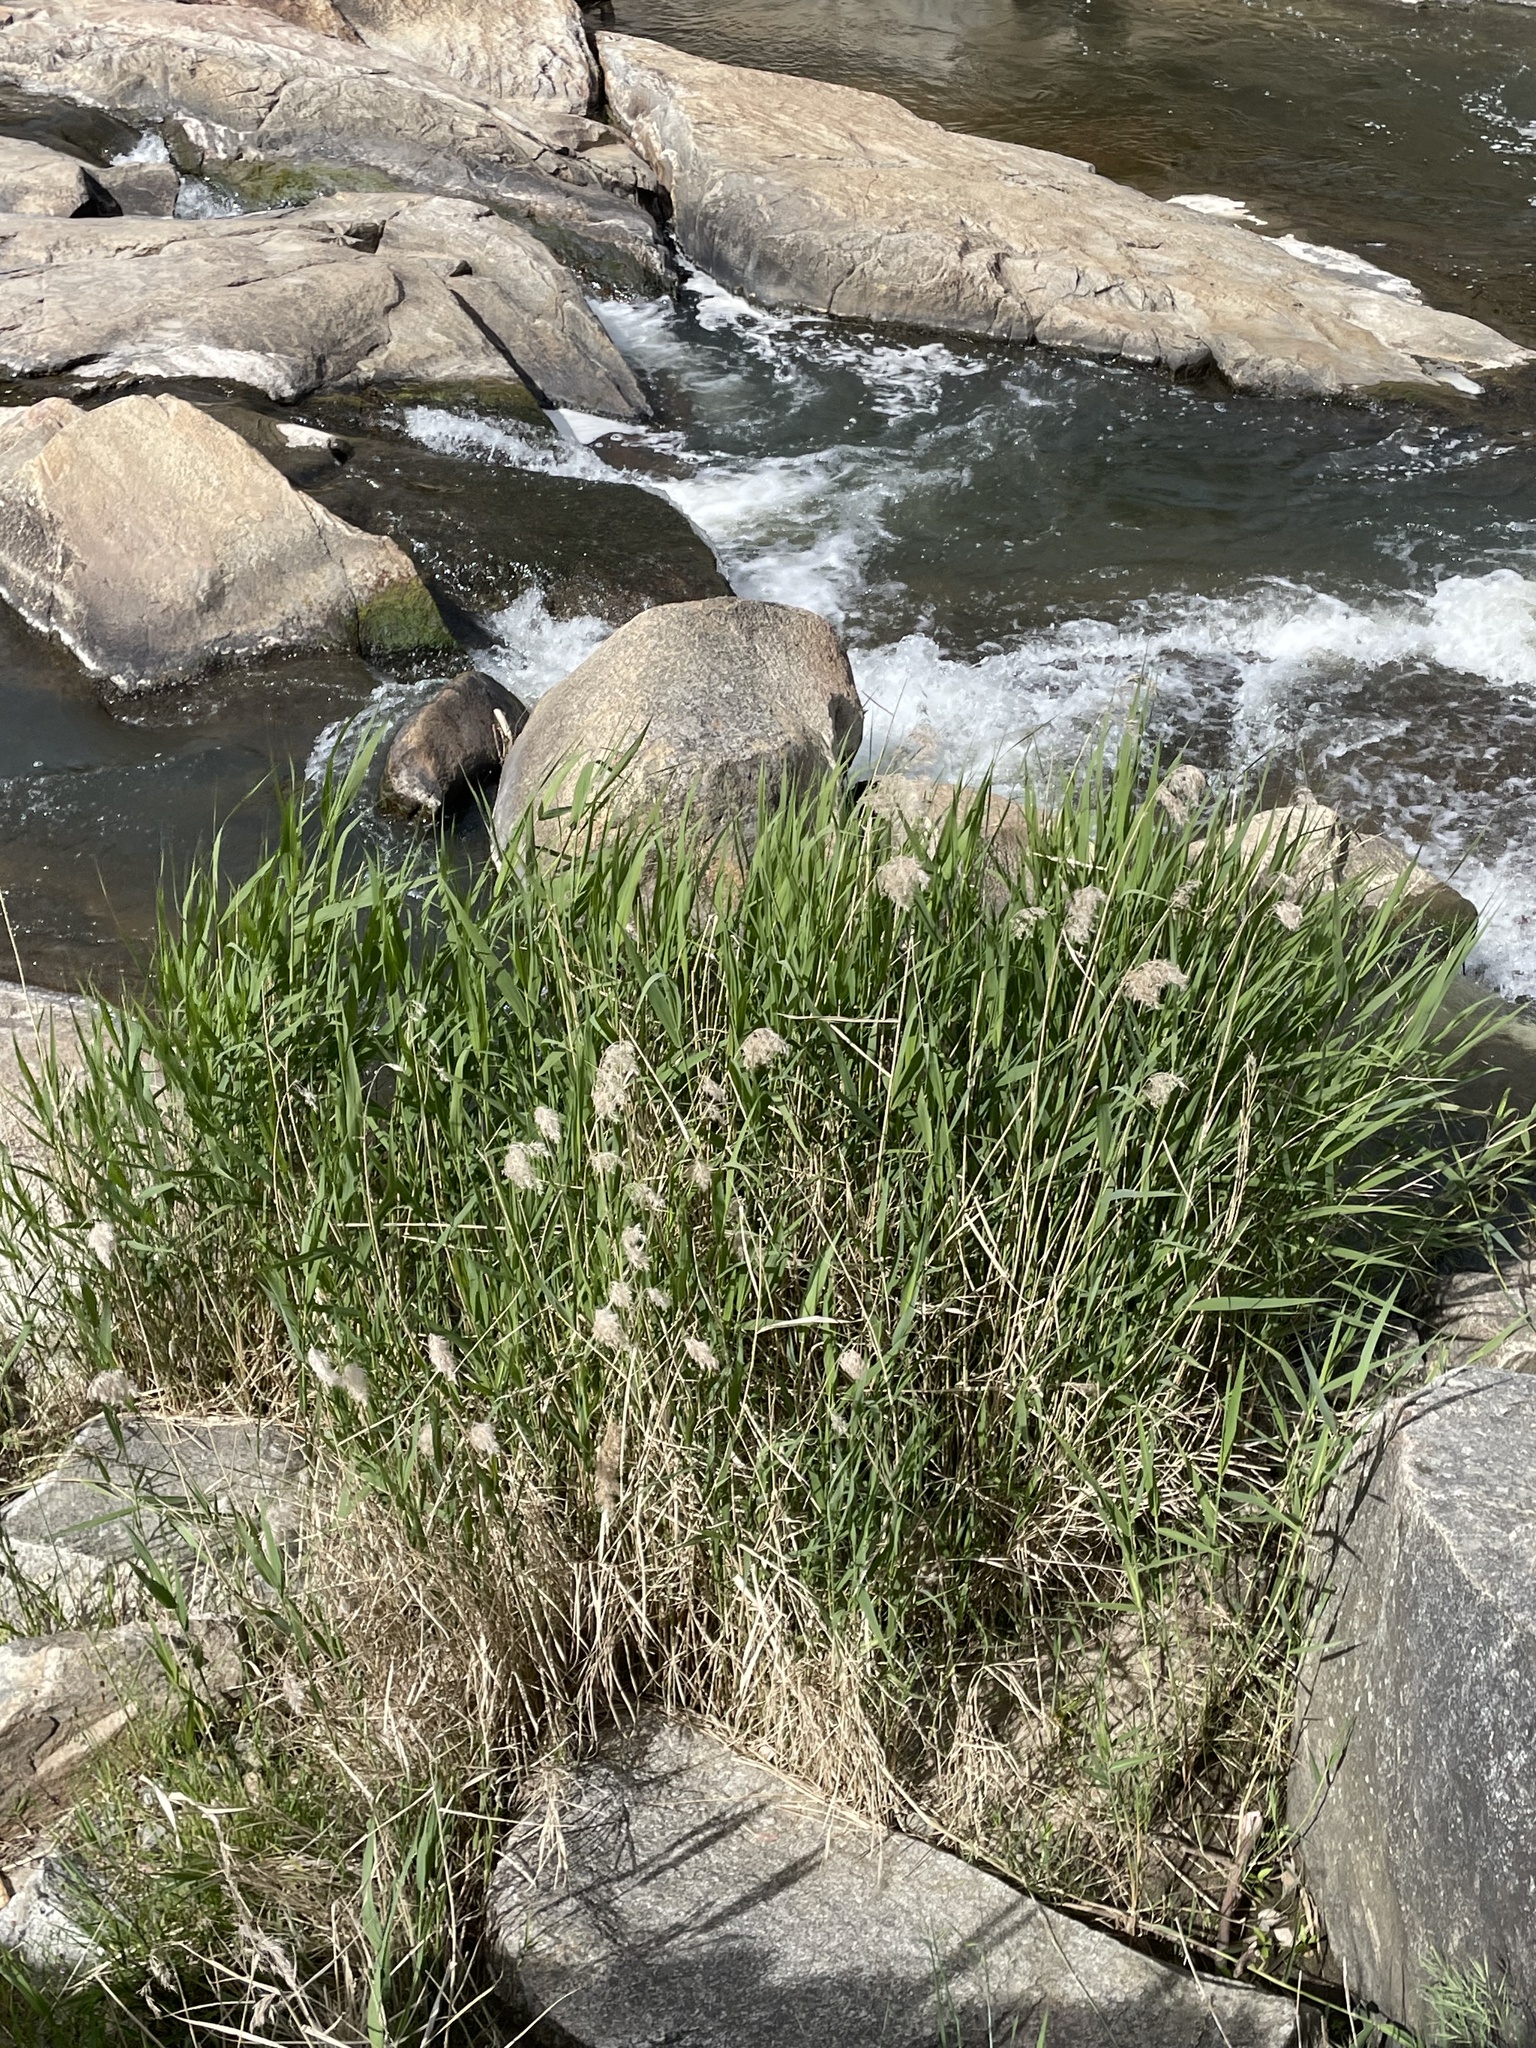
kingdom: Plantae
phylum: Tracheophyta
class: Liliopsida
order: Poales
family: Poaceae
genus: Phragmites
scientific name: Phragmites australis
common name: Common reed
